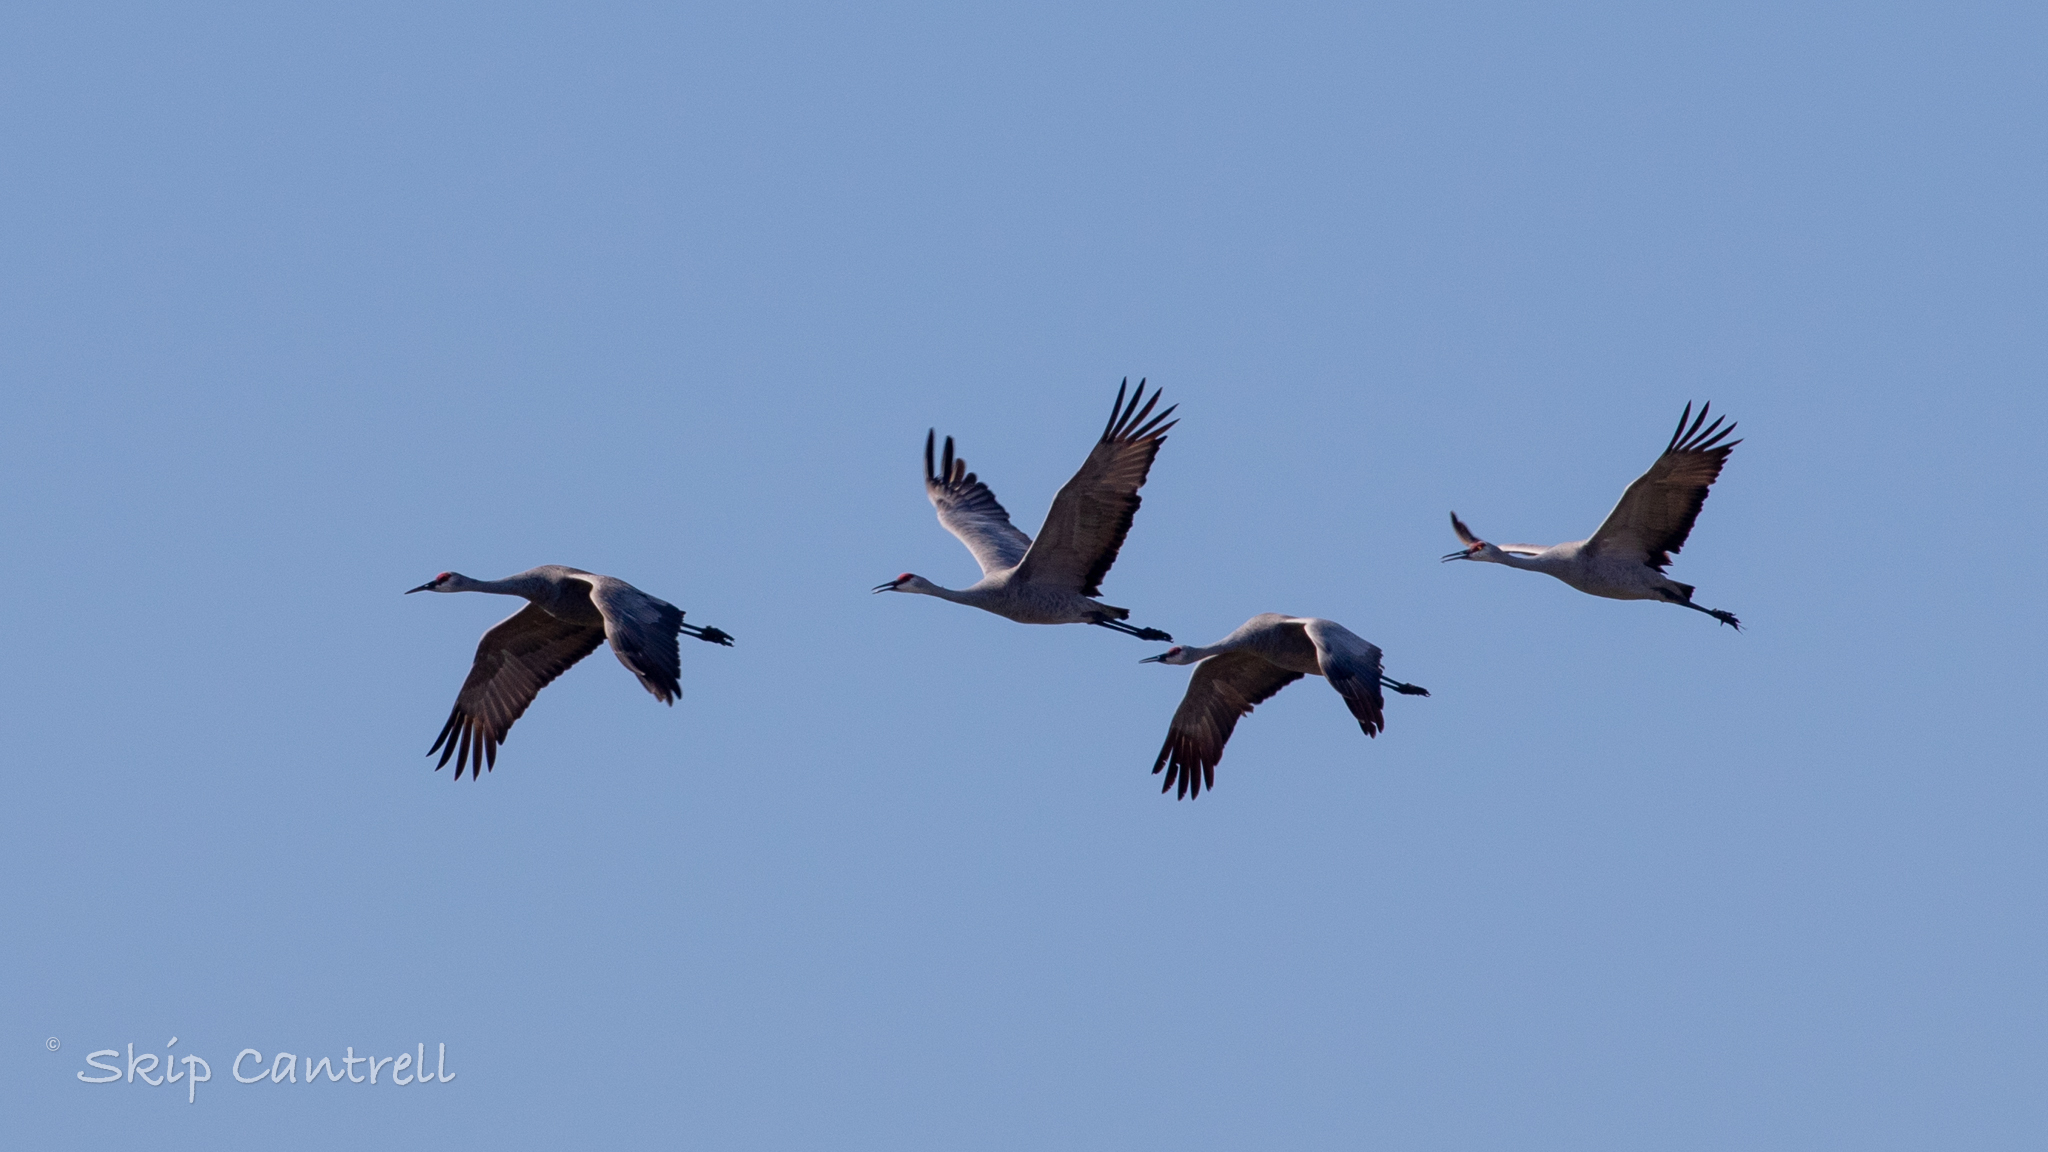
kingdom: Animalia
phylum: Chordata
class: Aves
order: Gruiformes
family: Gruidae
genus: Grus
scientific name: Grus canadensis
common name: Sandhill crane
